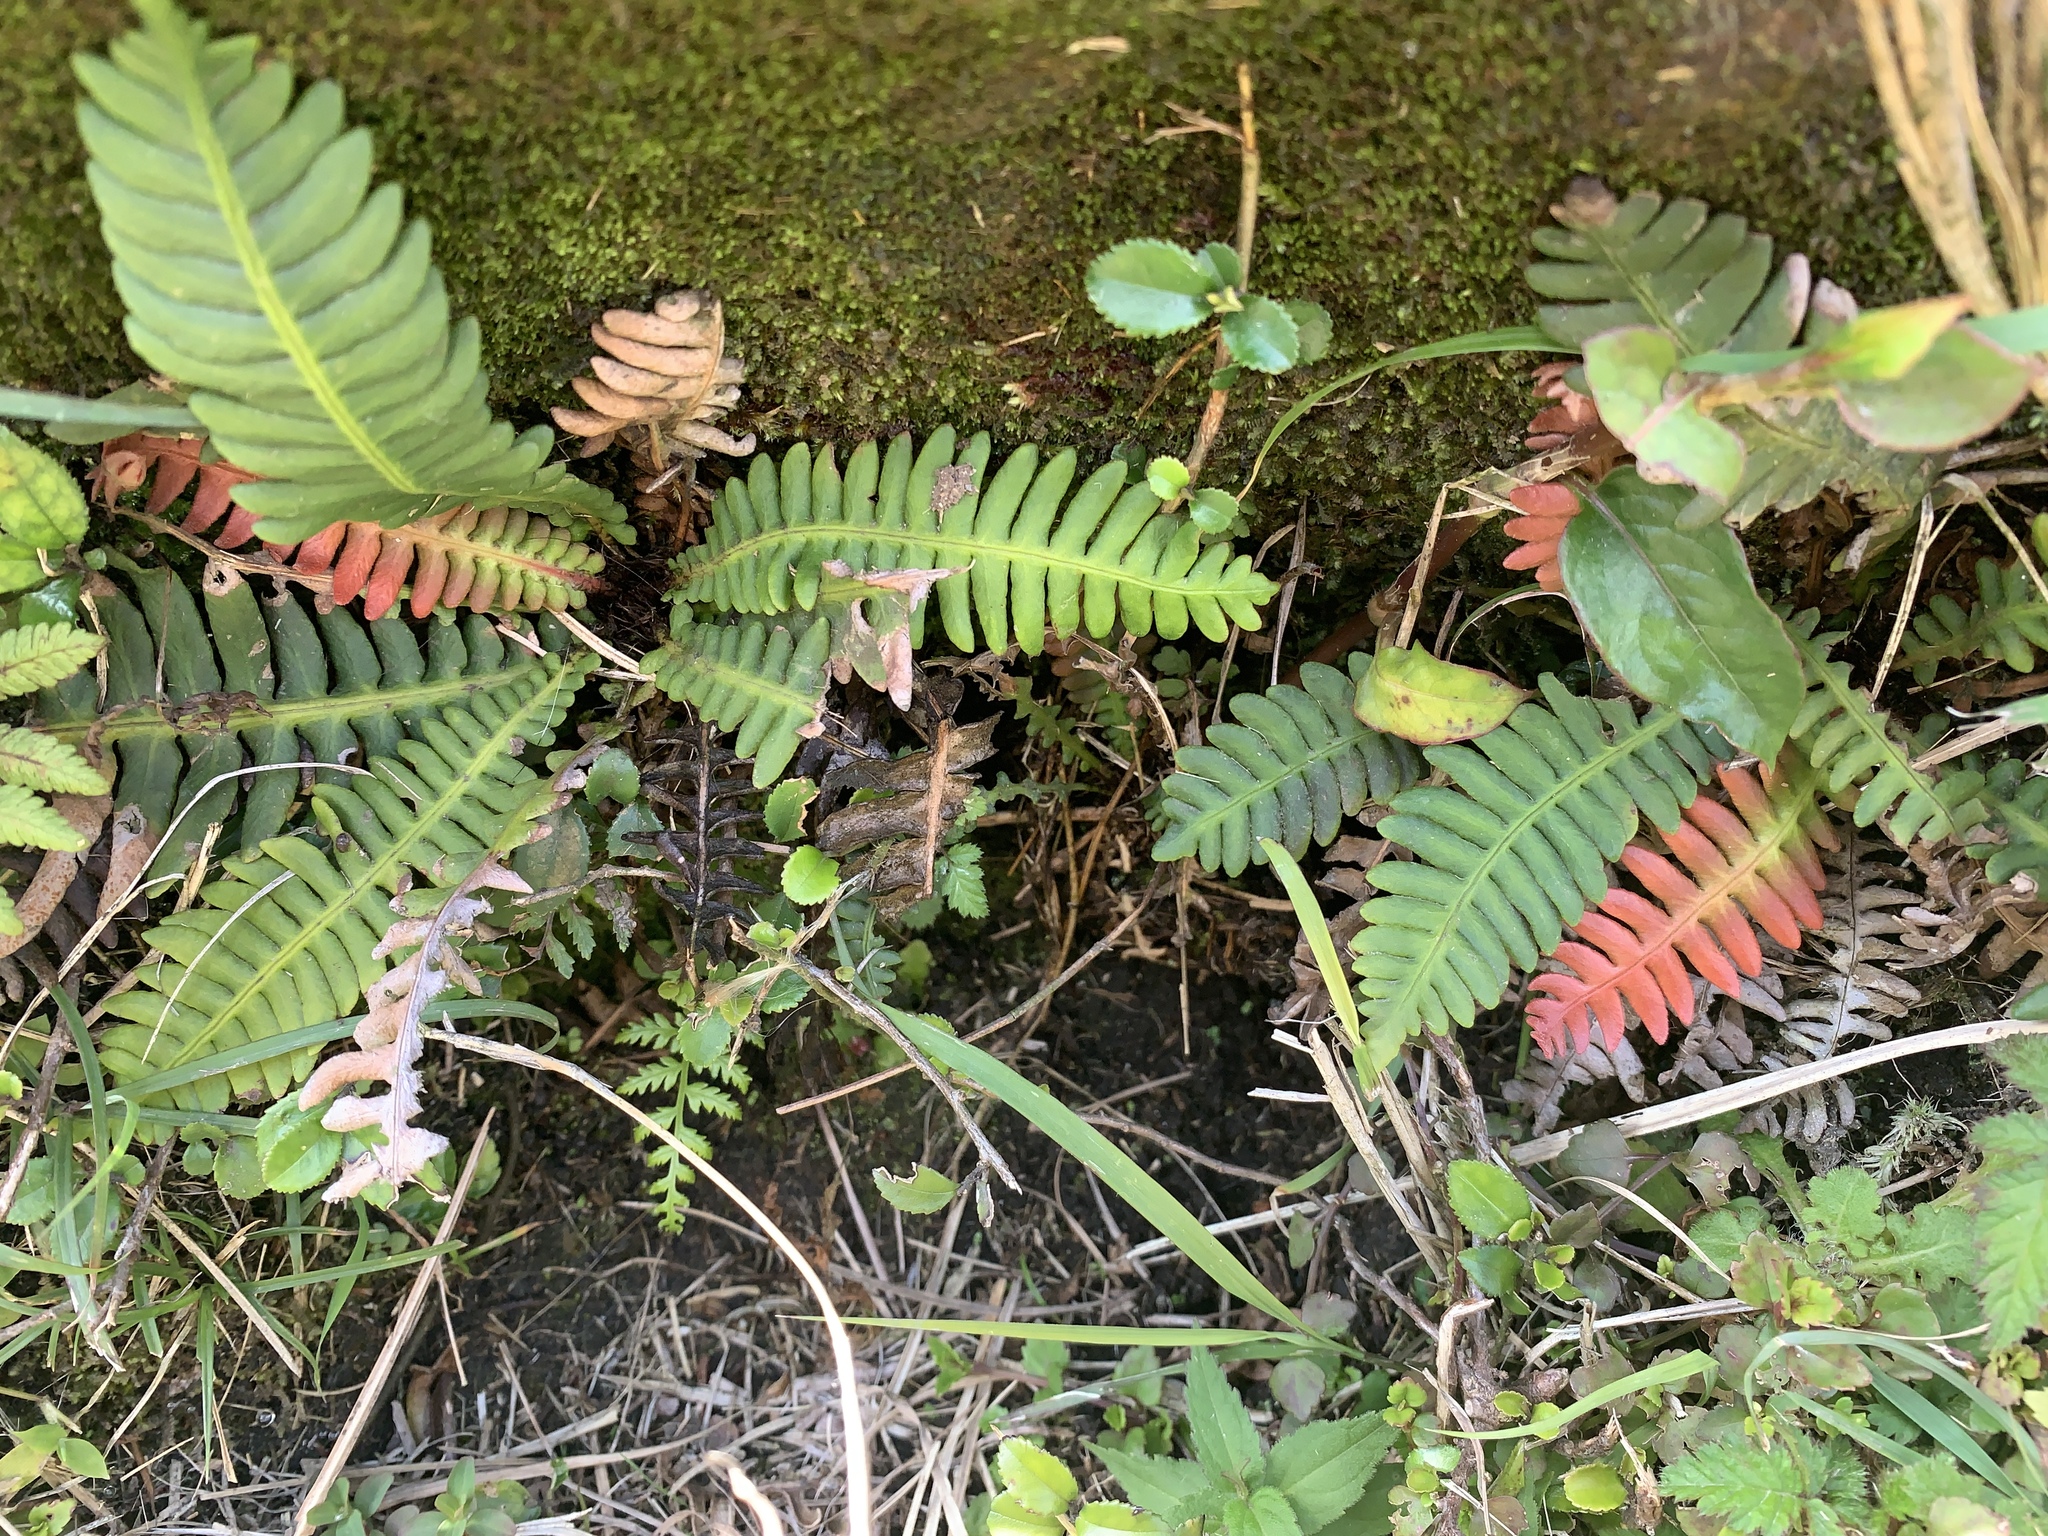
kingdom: Plantae
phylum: Tracheophyta
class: Polypodiopsida
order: Polypodiales
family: Blechnaceae
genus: Spicantopsis
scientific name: Spicantopsis hancockii
